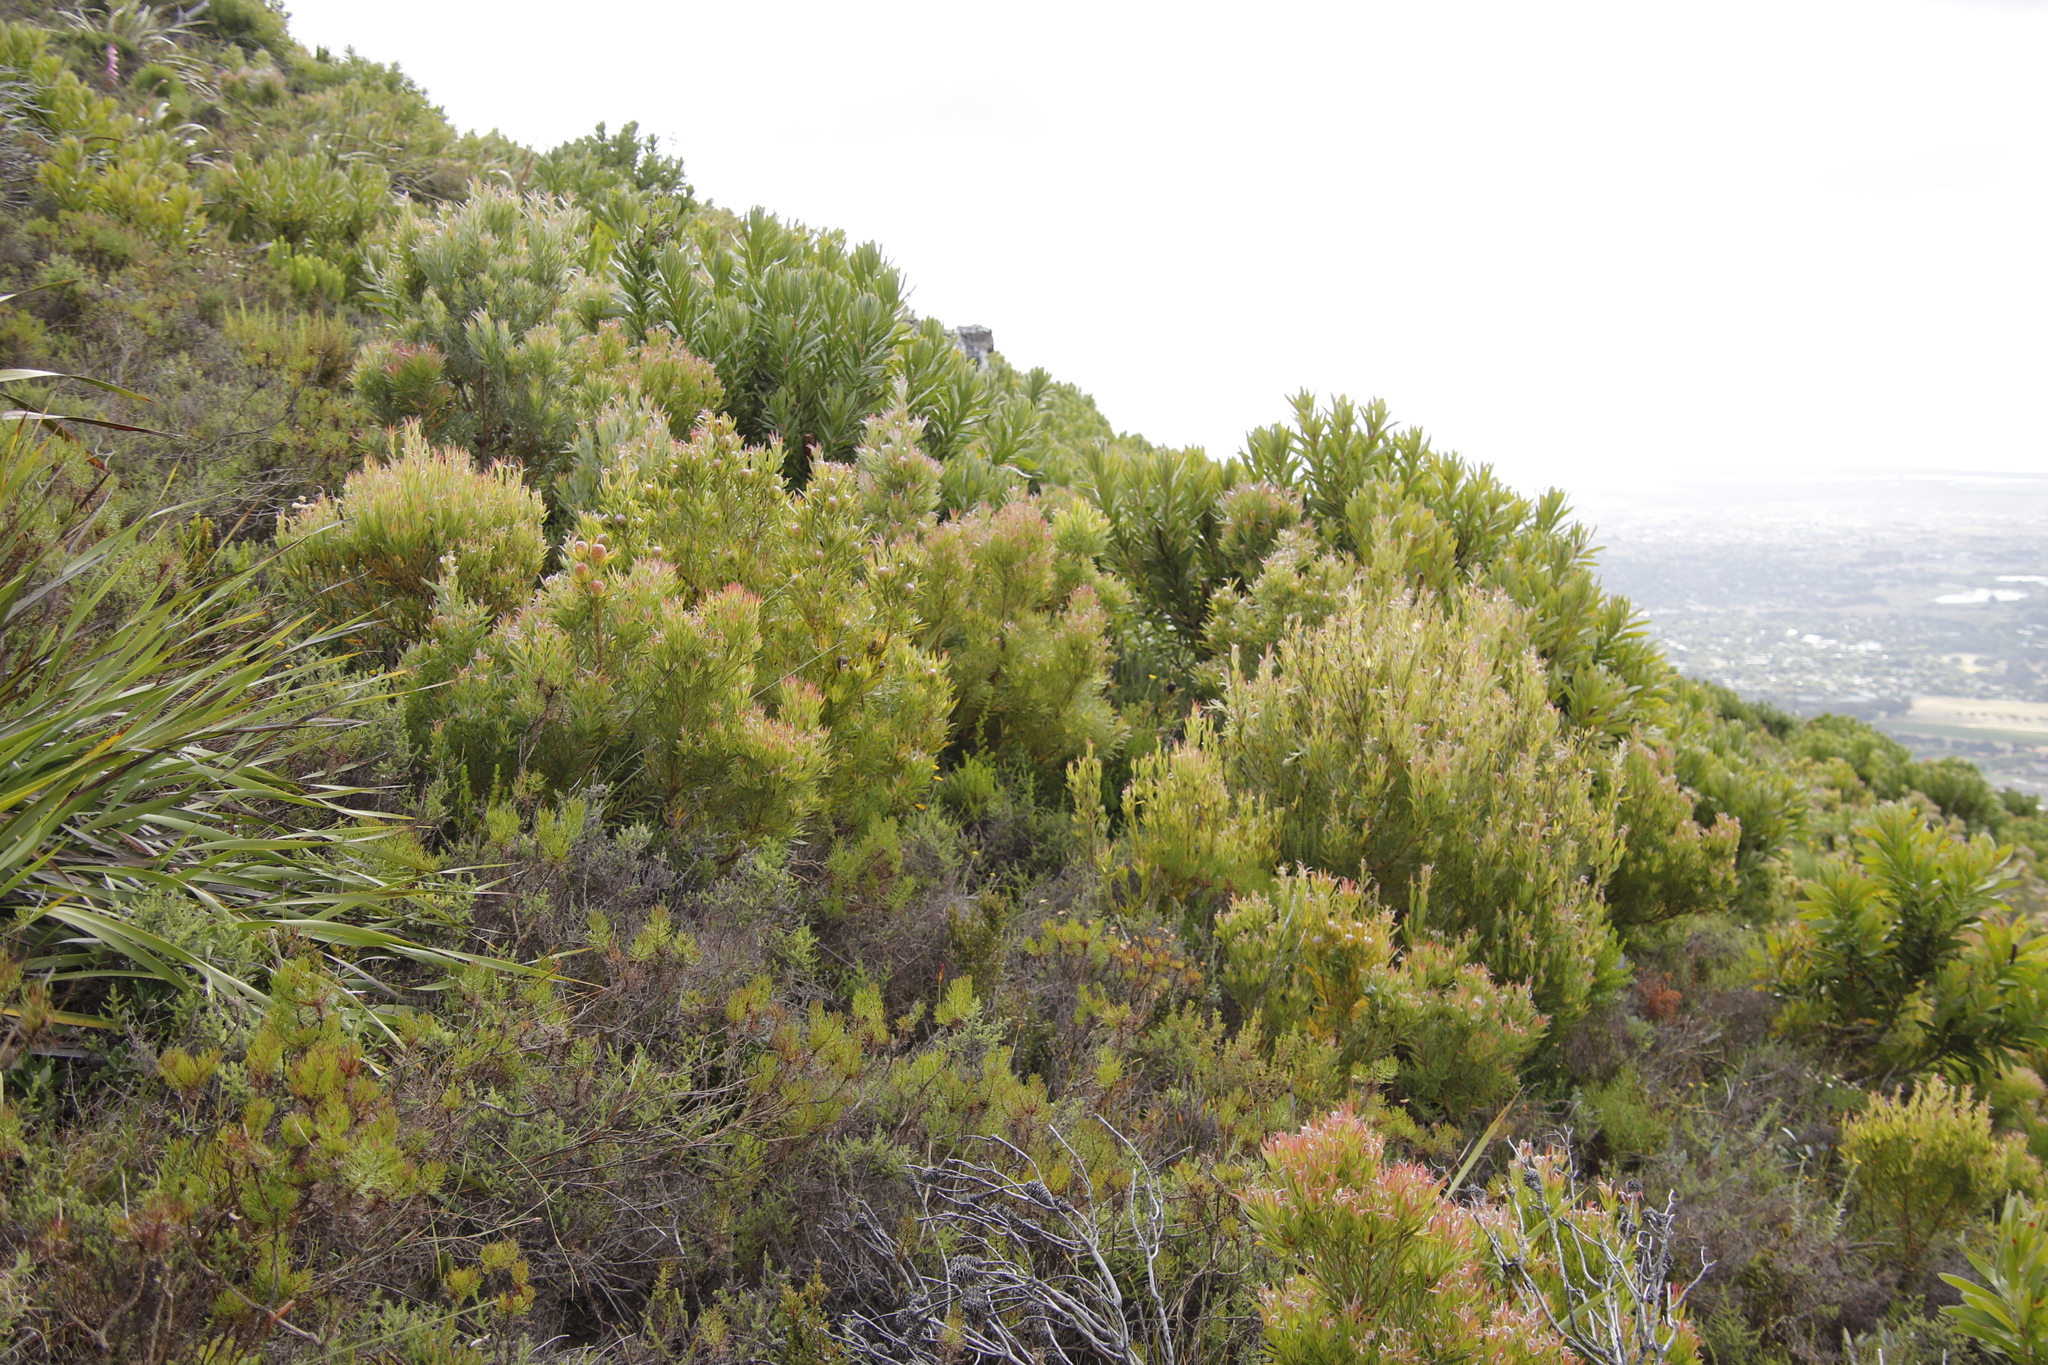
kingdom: Plantae
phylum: Tracheophyta
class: Magnoliopsida
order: Proteales
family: Proteaceae
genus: Leucadendron
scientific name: Leucadendron xanthoconus
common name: Sickle-leaf conebush
